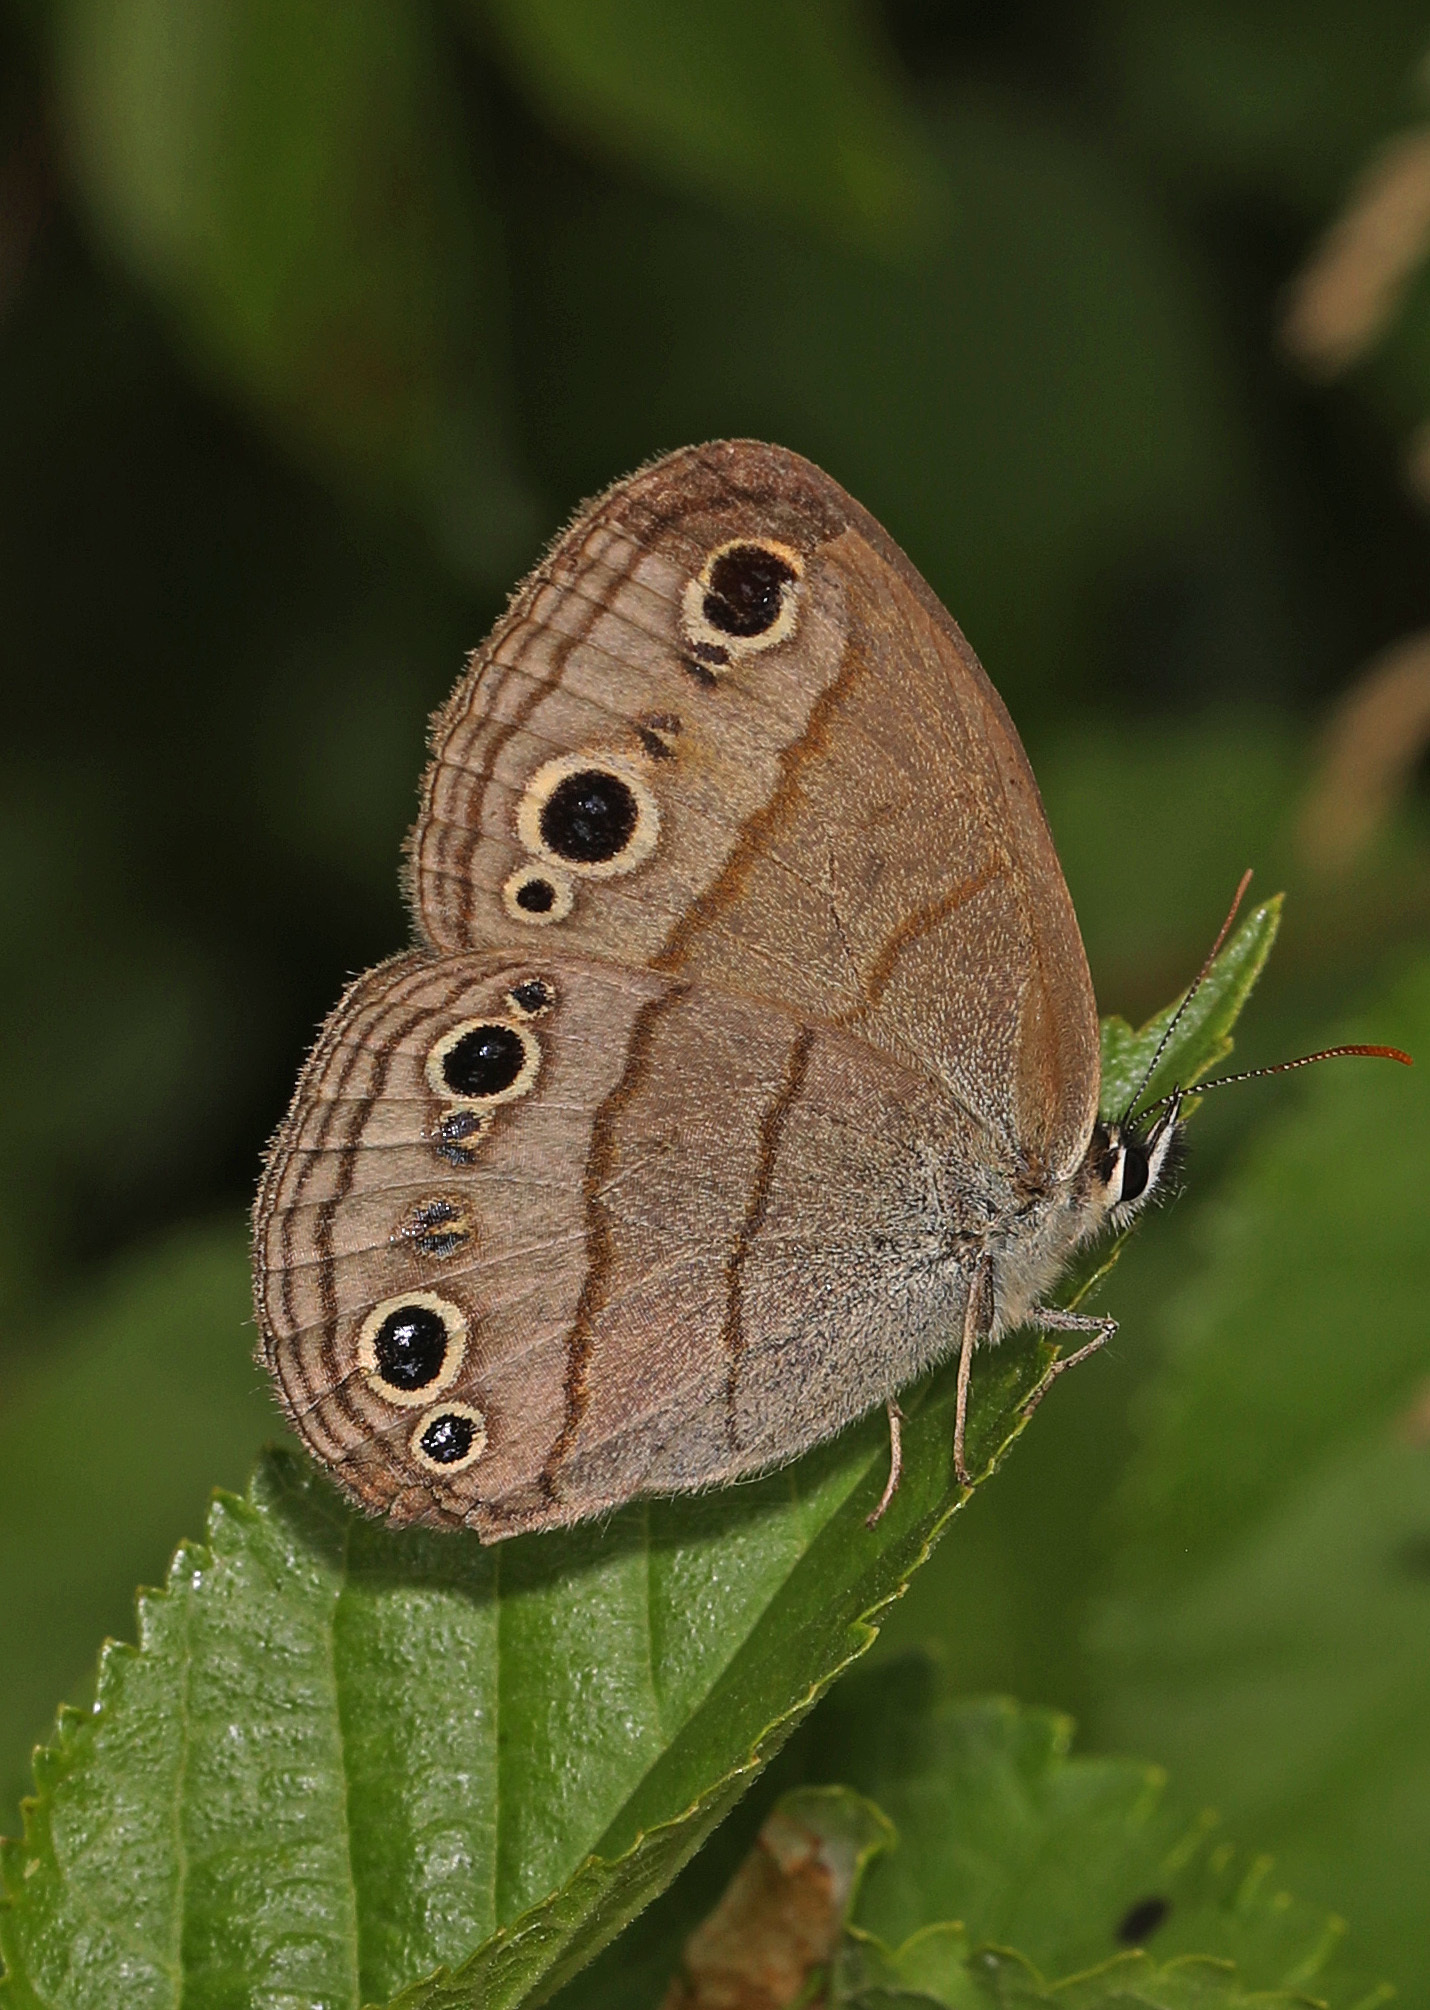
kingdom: Animalia
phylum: Arthropoda
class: Insecta
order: Lepidoptera
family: Nymphalidae
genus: Euptychia
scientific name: Euptychia cymela
